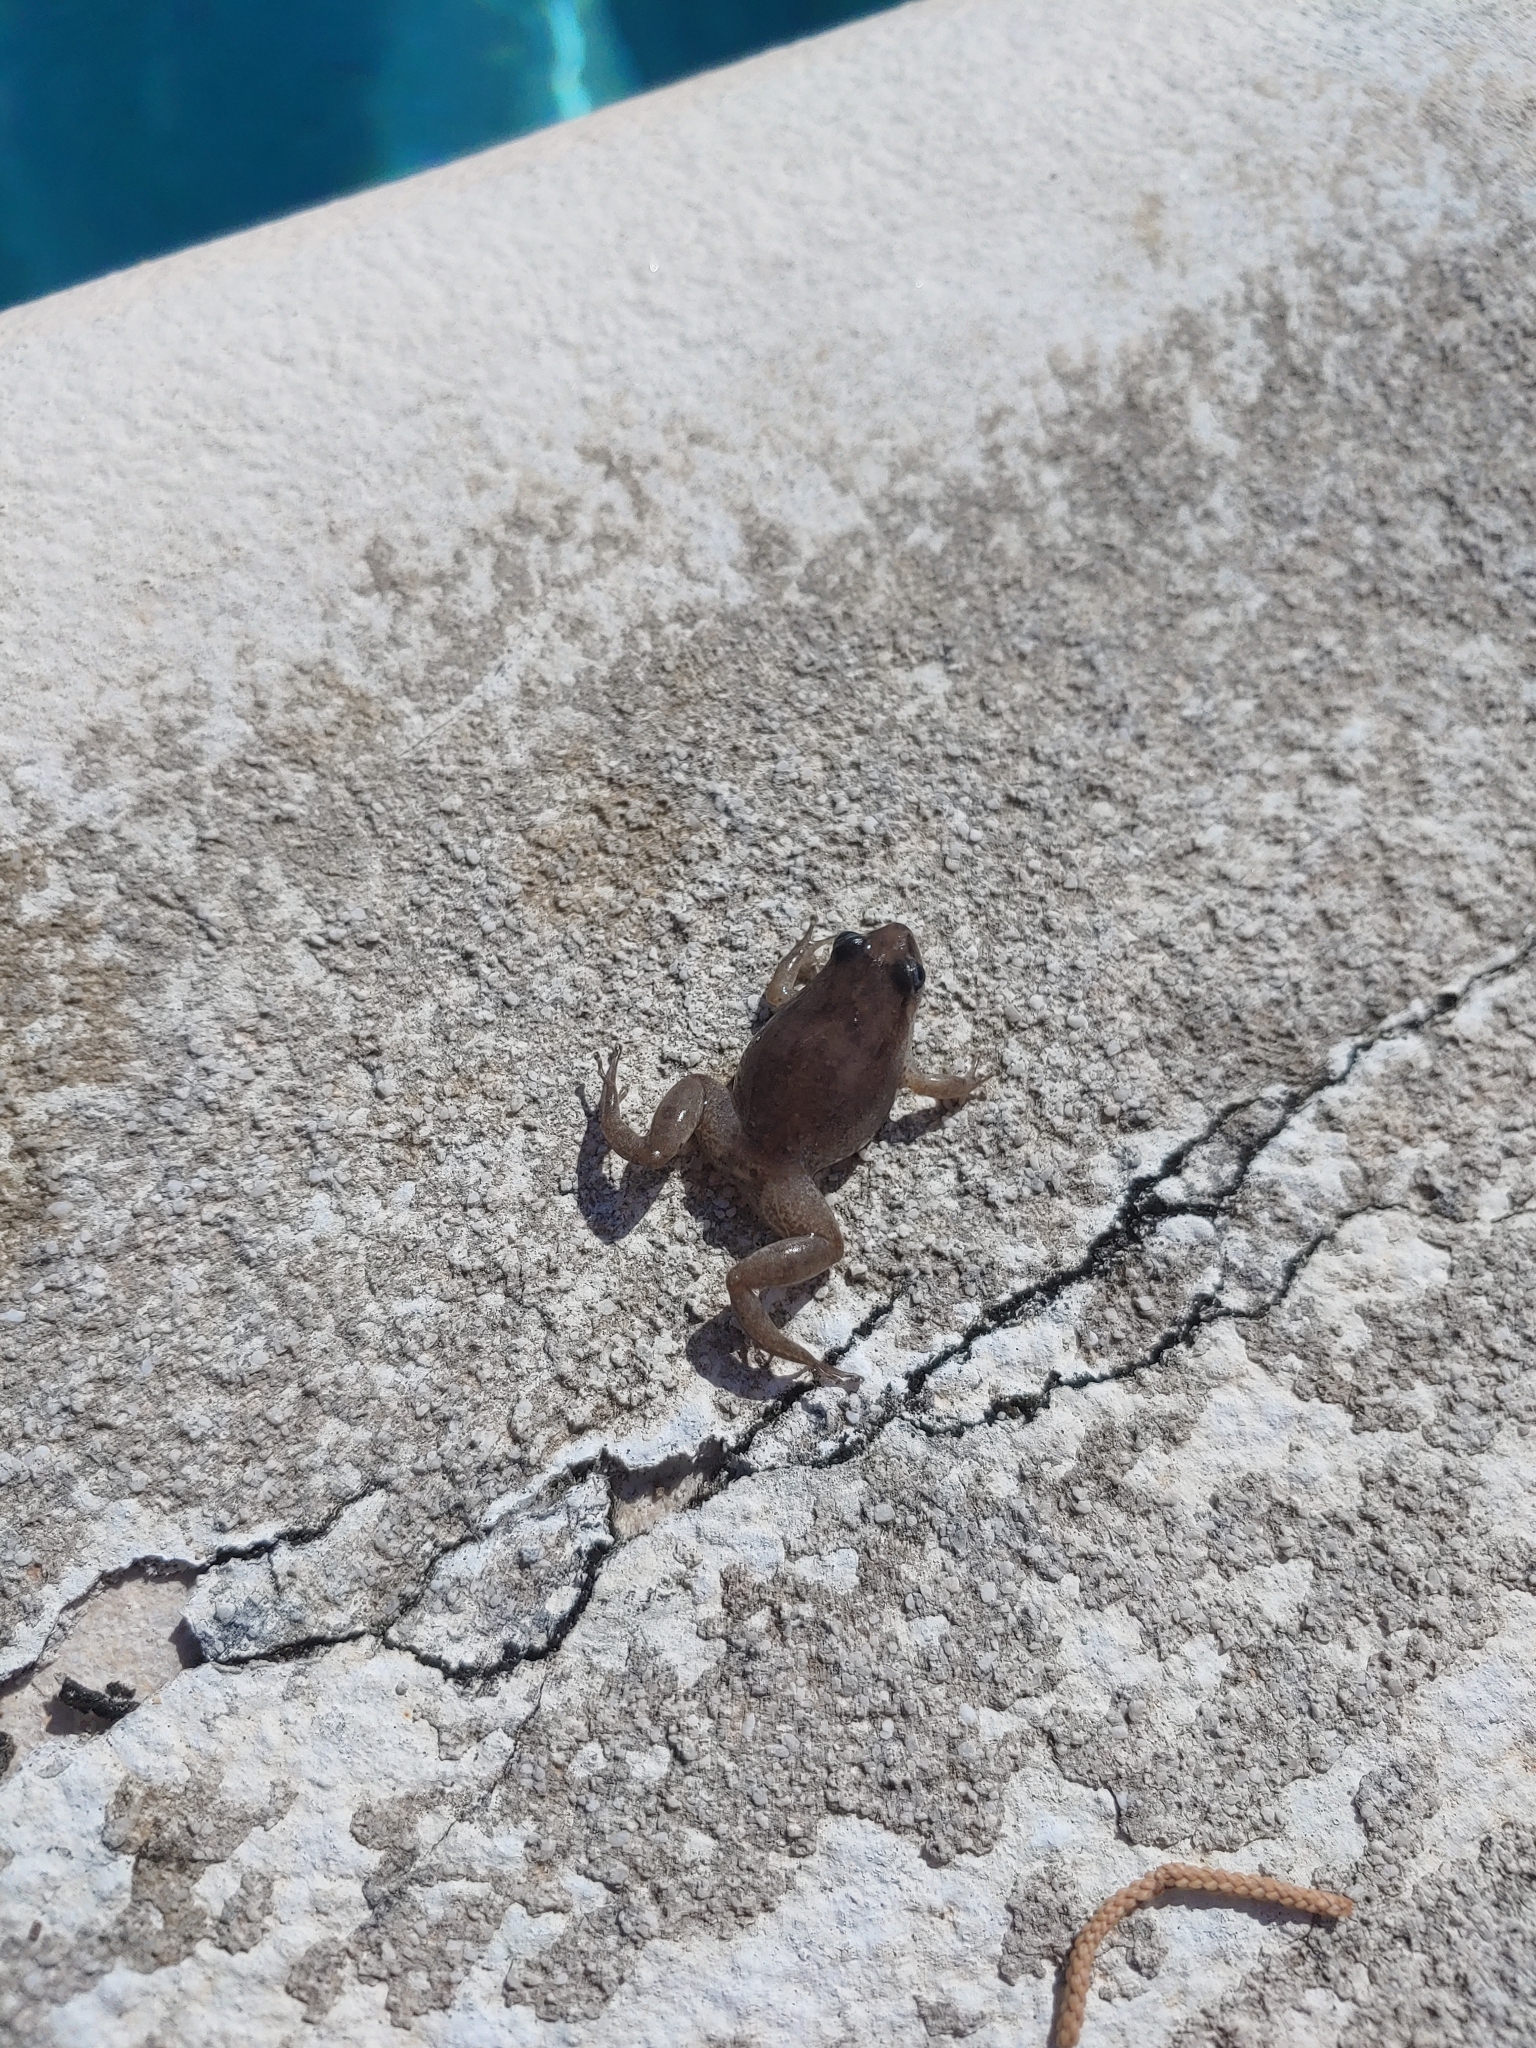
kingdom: Animalia
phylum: Chordata
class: Amphibia
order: Anura
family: Eleutherodactylidae
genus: Eleutherodactylus
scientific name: Eleutherodactylus montserratae
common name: Montserrat whistling frog
